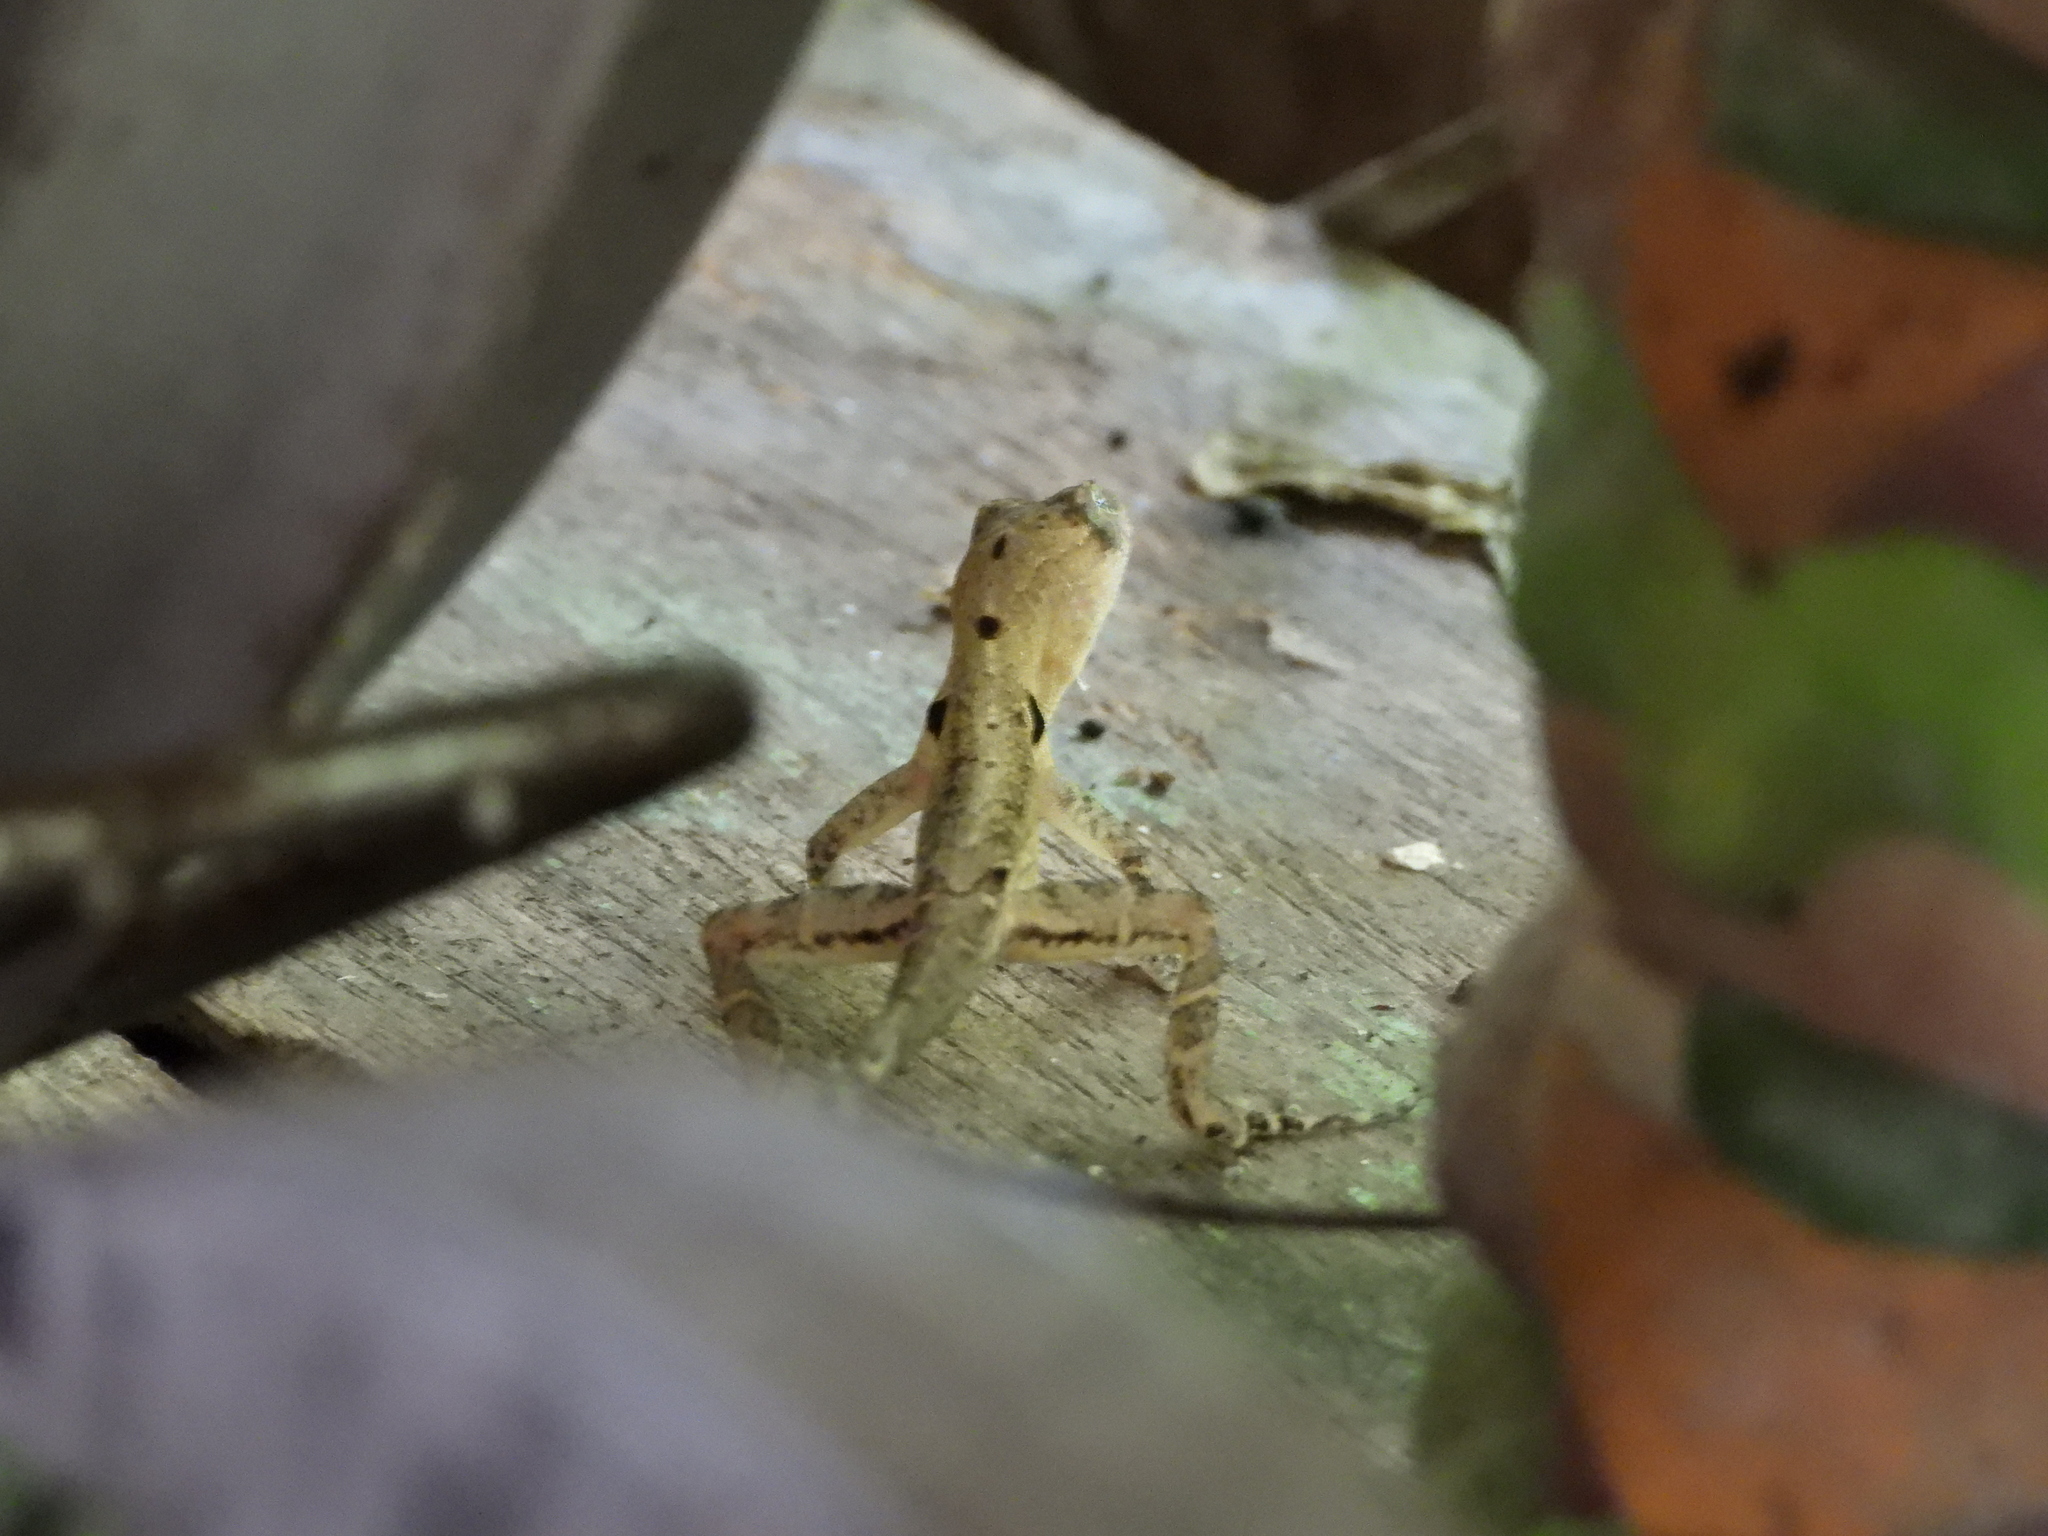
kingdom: Animalia
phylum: Chordata
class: Squamata
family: Dactyloidae
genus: Anolis
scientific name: Anolis limifrons
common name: Border anole
